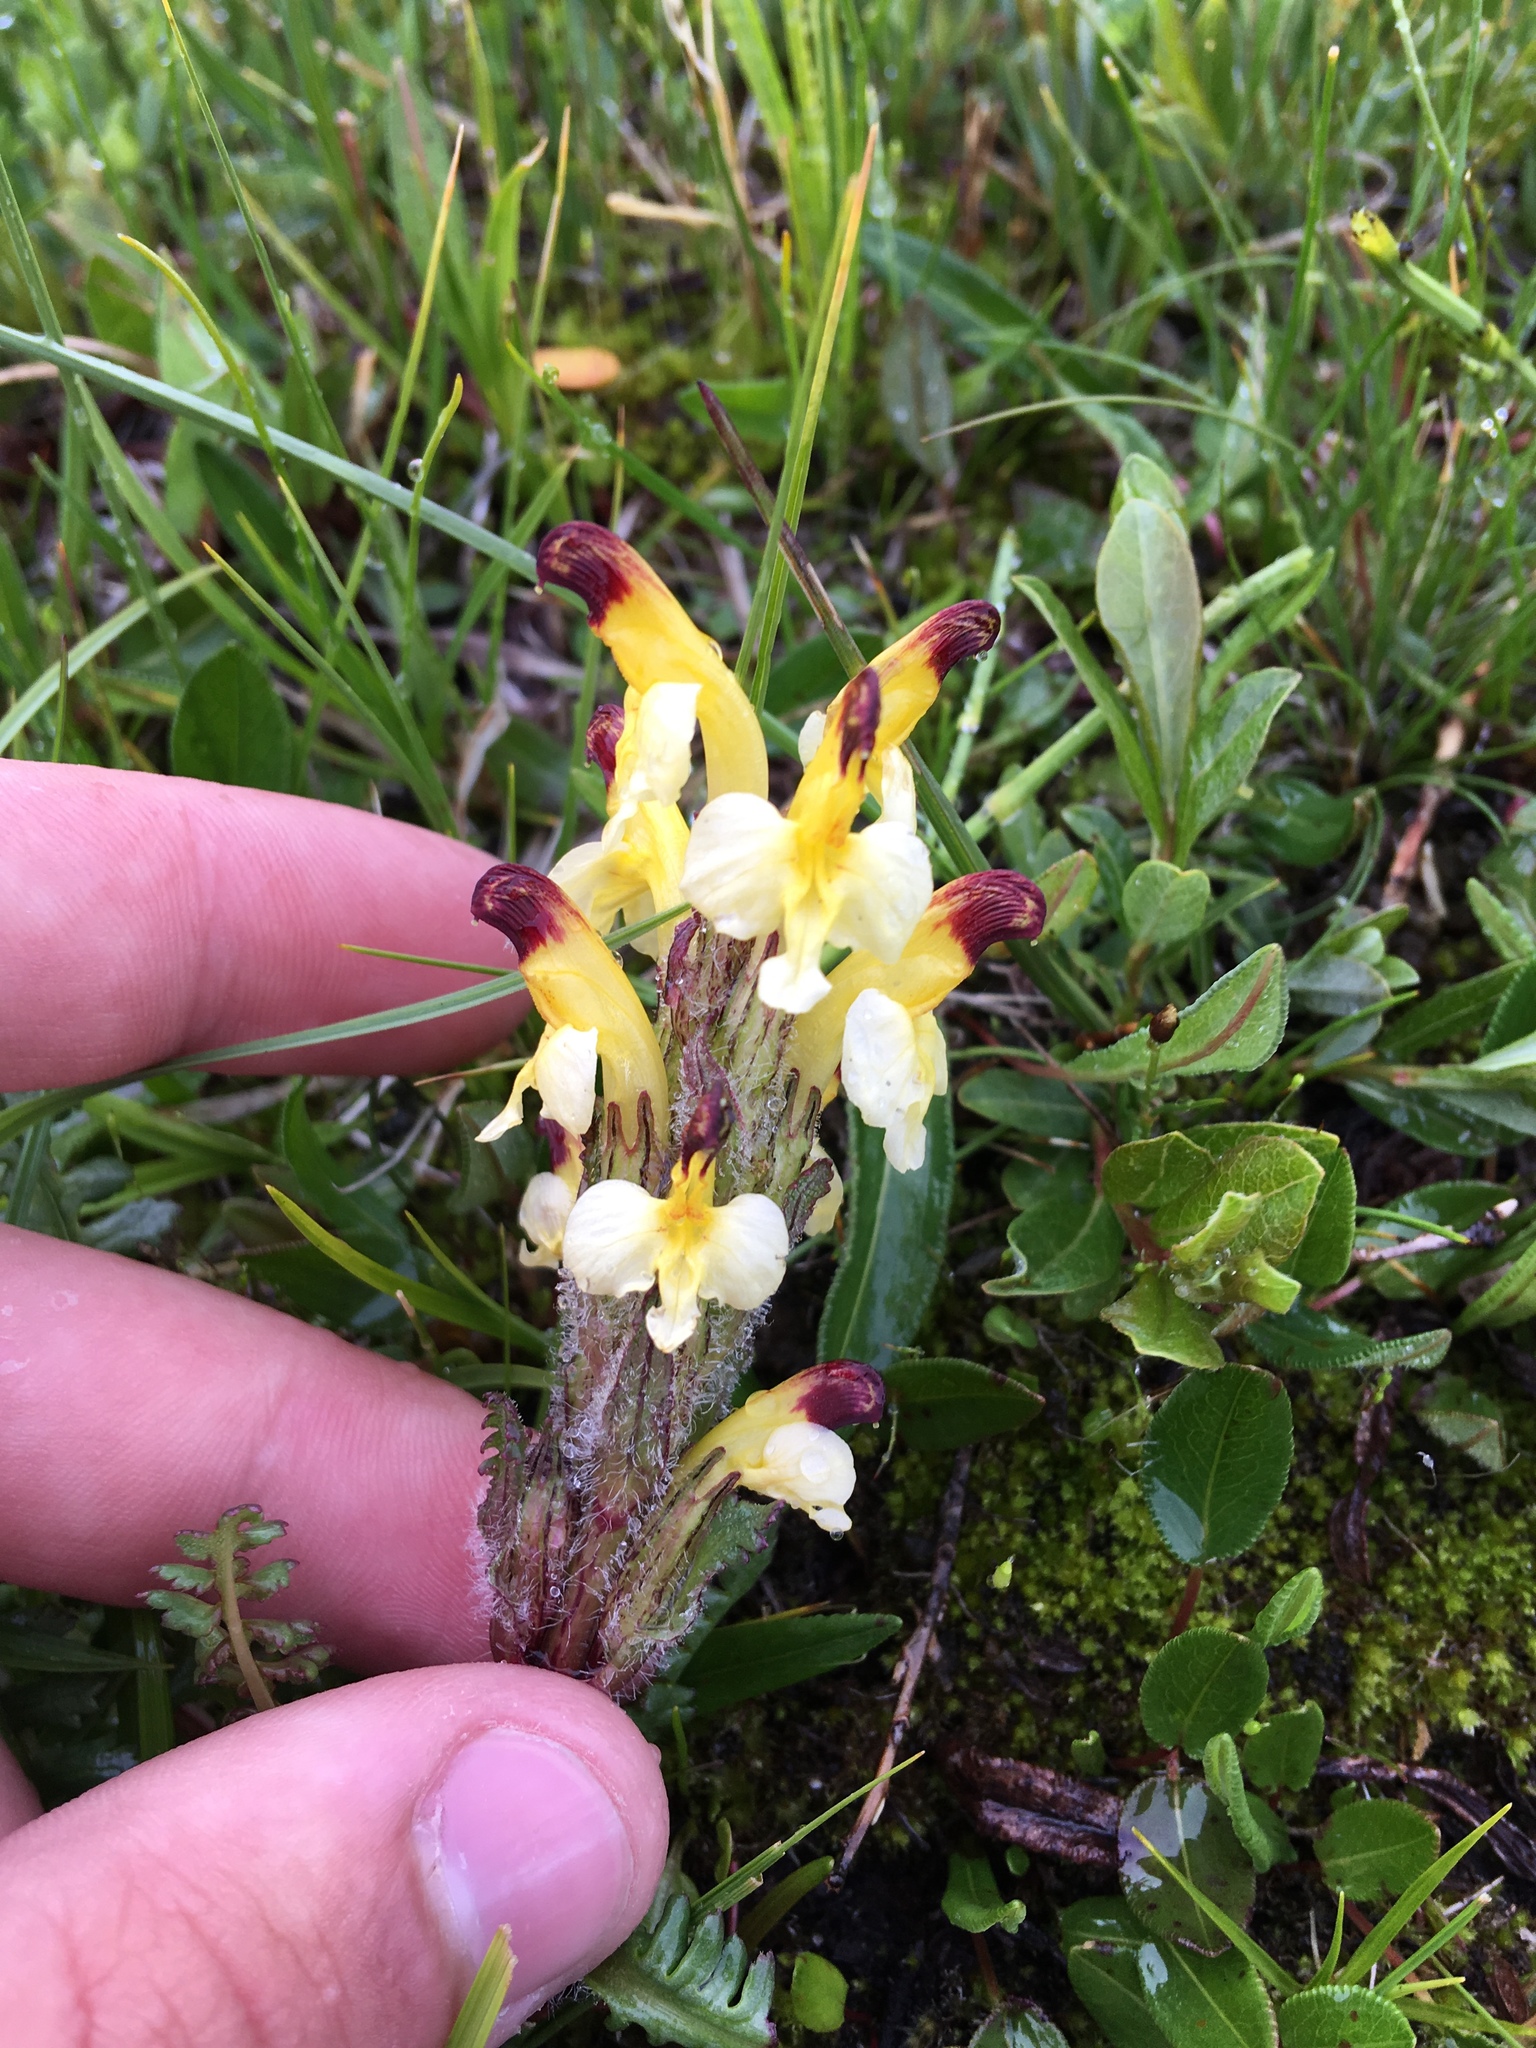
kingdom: Plantae
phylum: Tracheophyta
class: Magnoliopsida
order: Lamiales
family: Orobanchaceae
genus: Pedicularis
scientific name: Pedicularis oederi
